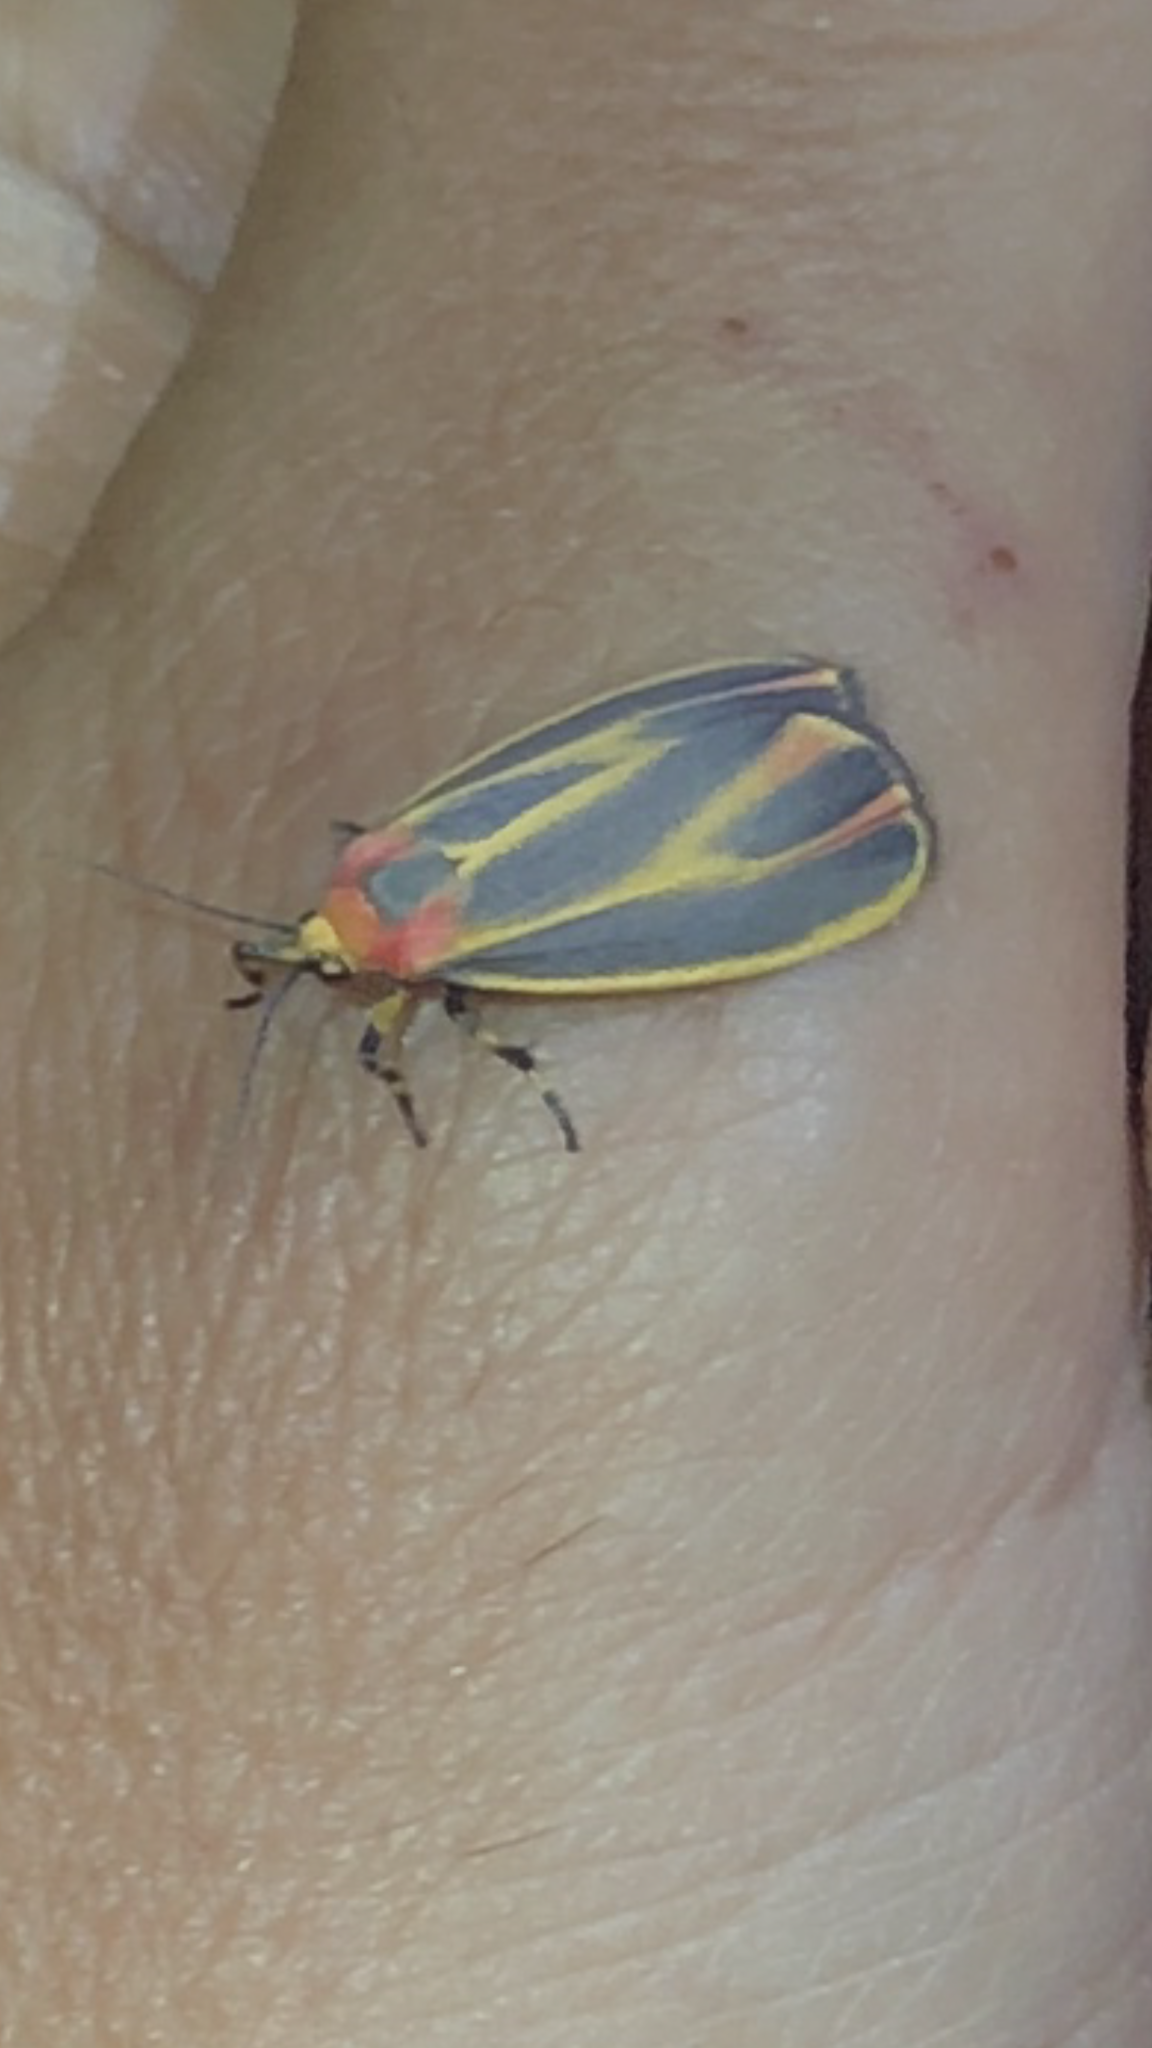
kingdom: Animalia
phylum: Arthropoda
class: Insecta
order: Lepidoptera
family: Erebidae
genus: Hypoprepia
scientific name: Hypoprepia fucosa
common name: Painted lichen moth
